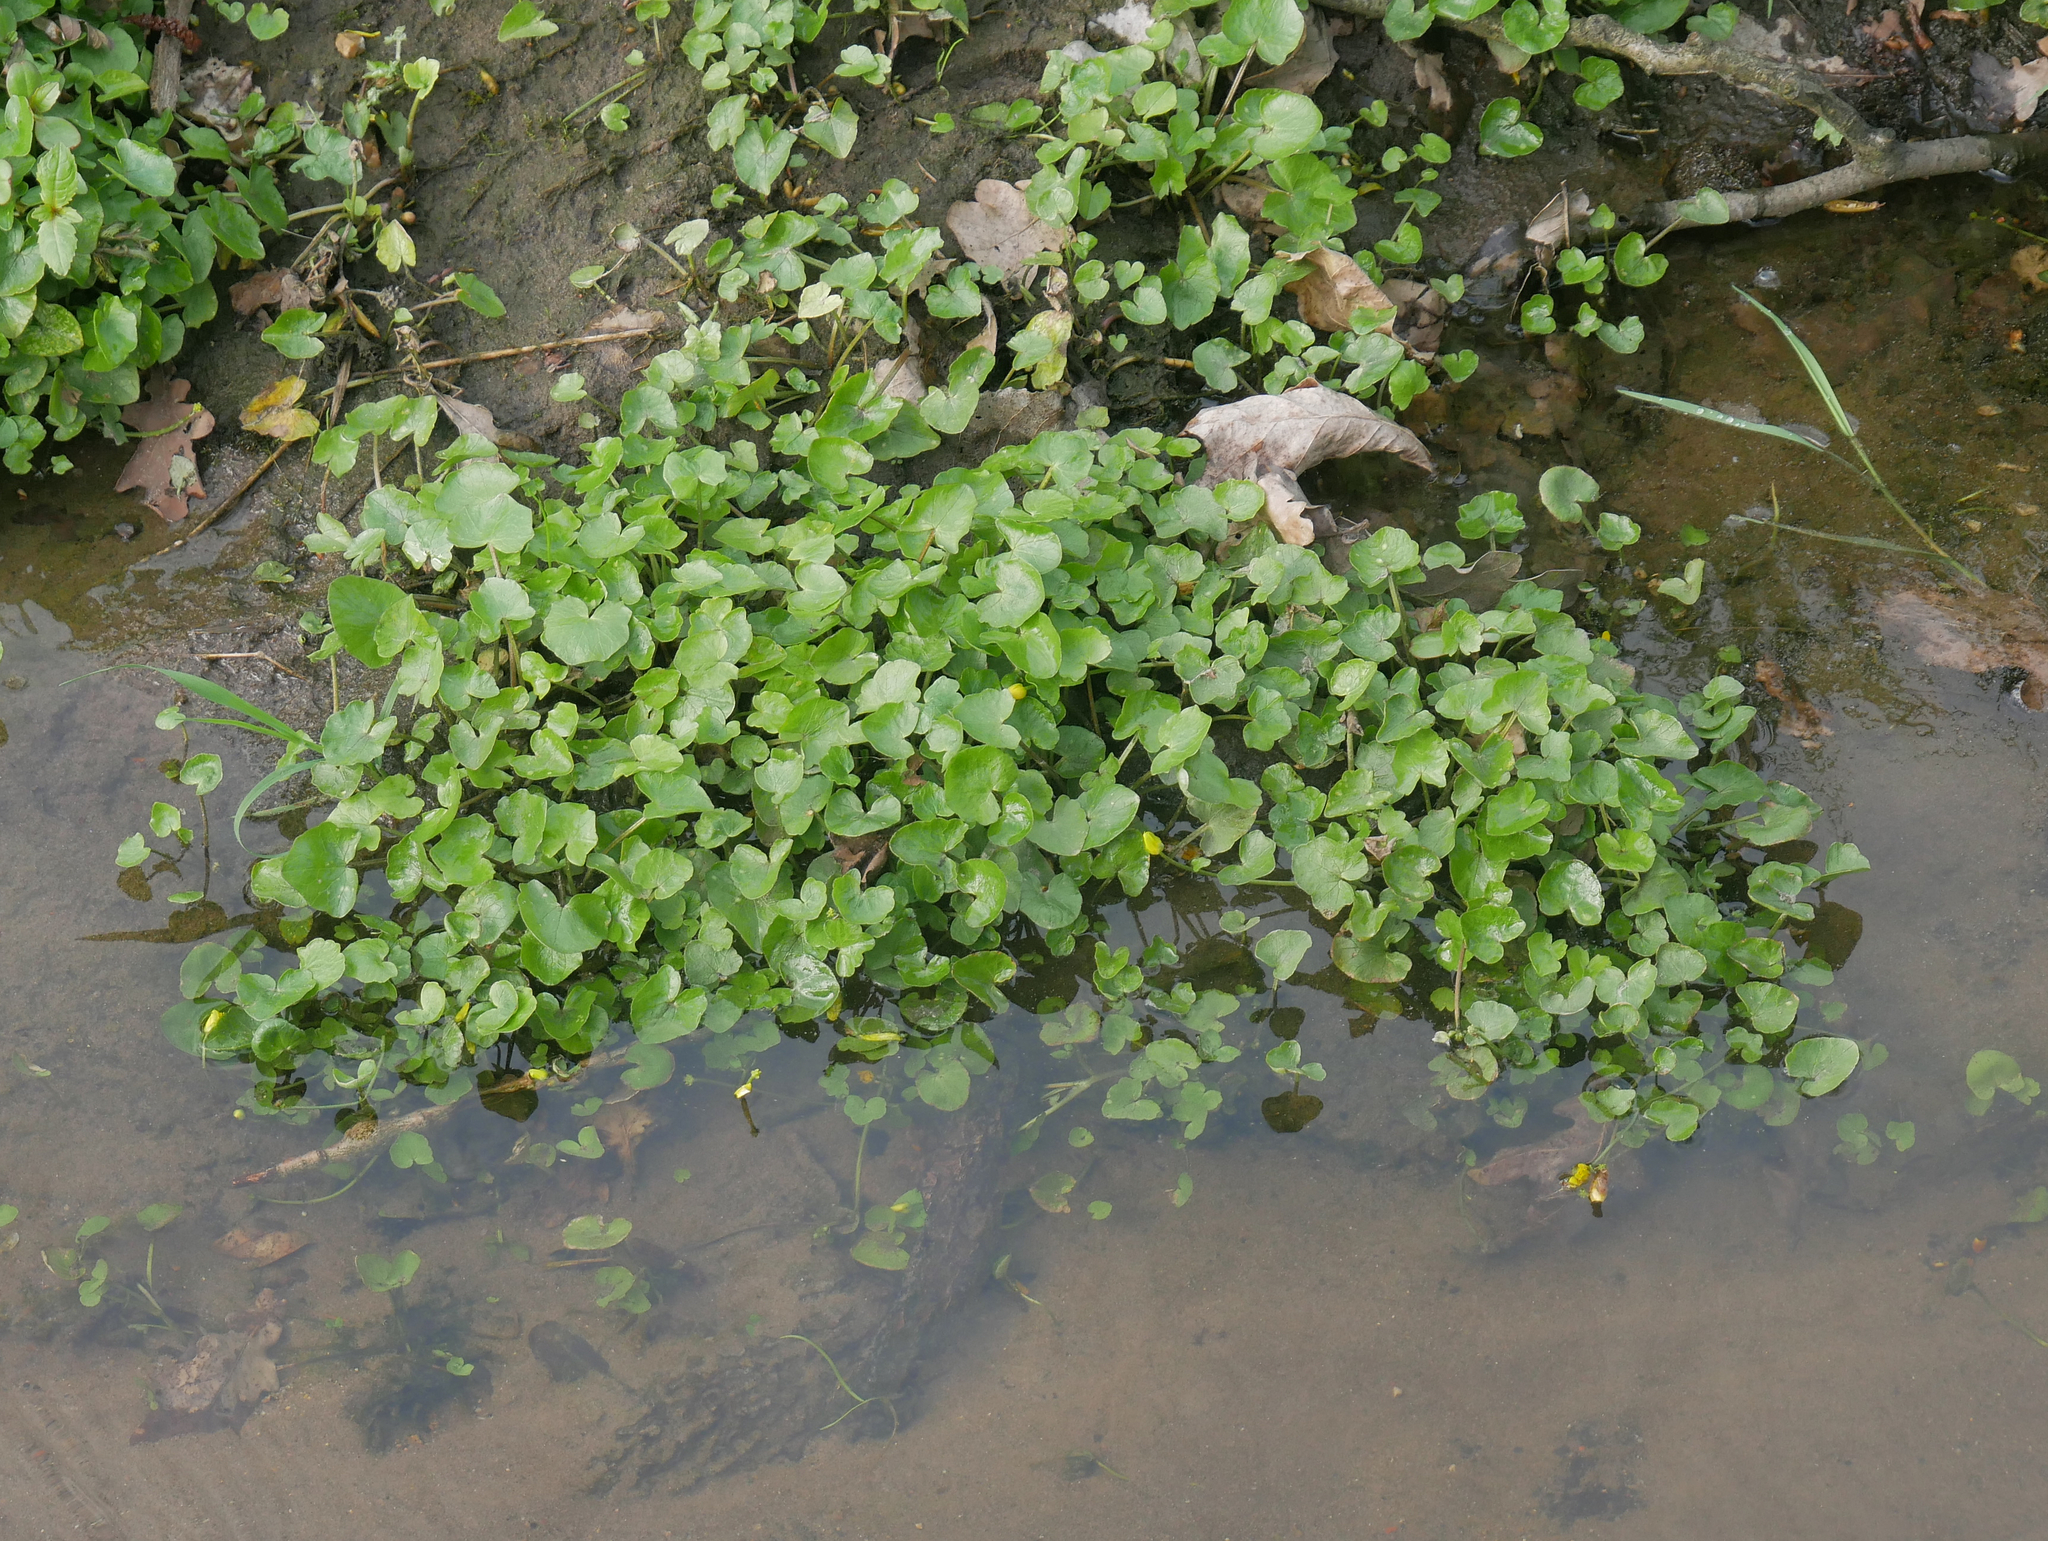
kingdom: Plantae
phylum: Tracheophyta
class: Magnoliopsida
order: Ranunculales
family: Ranunculaceae
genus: Ficaria
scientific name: Ficaria verna
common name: Lesser celandine
